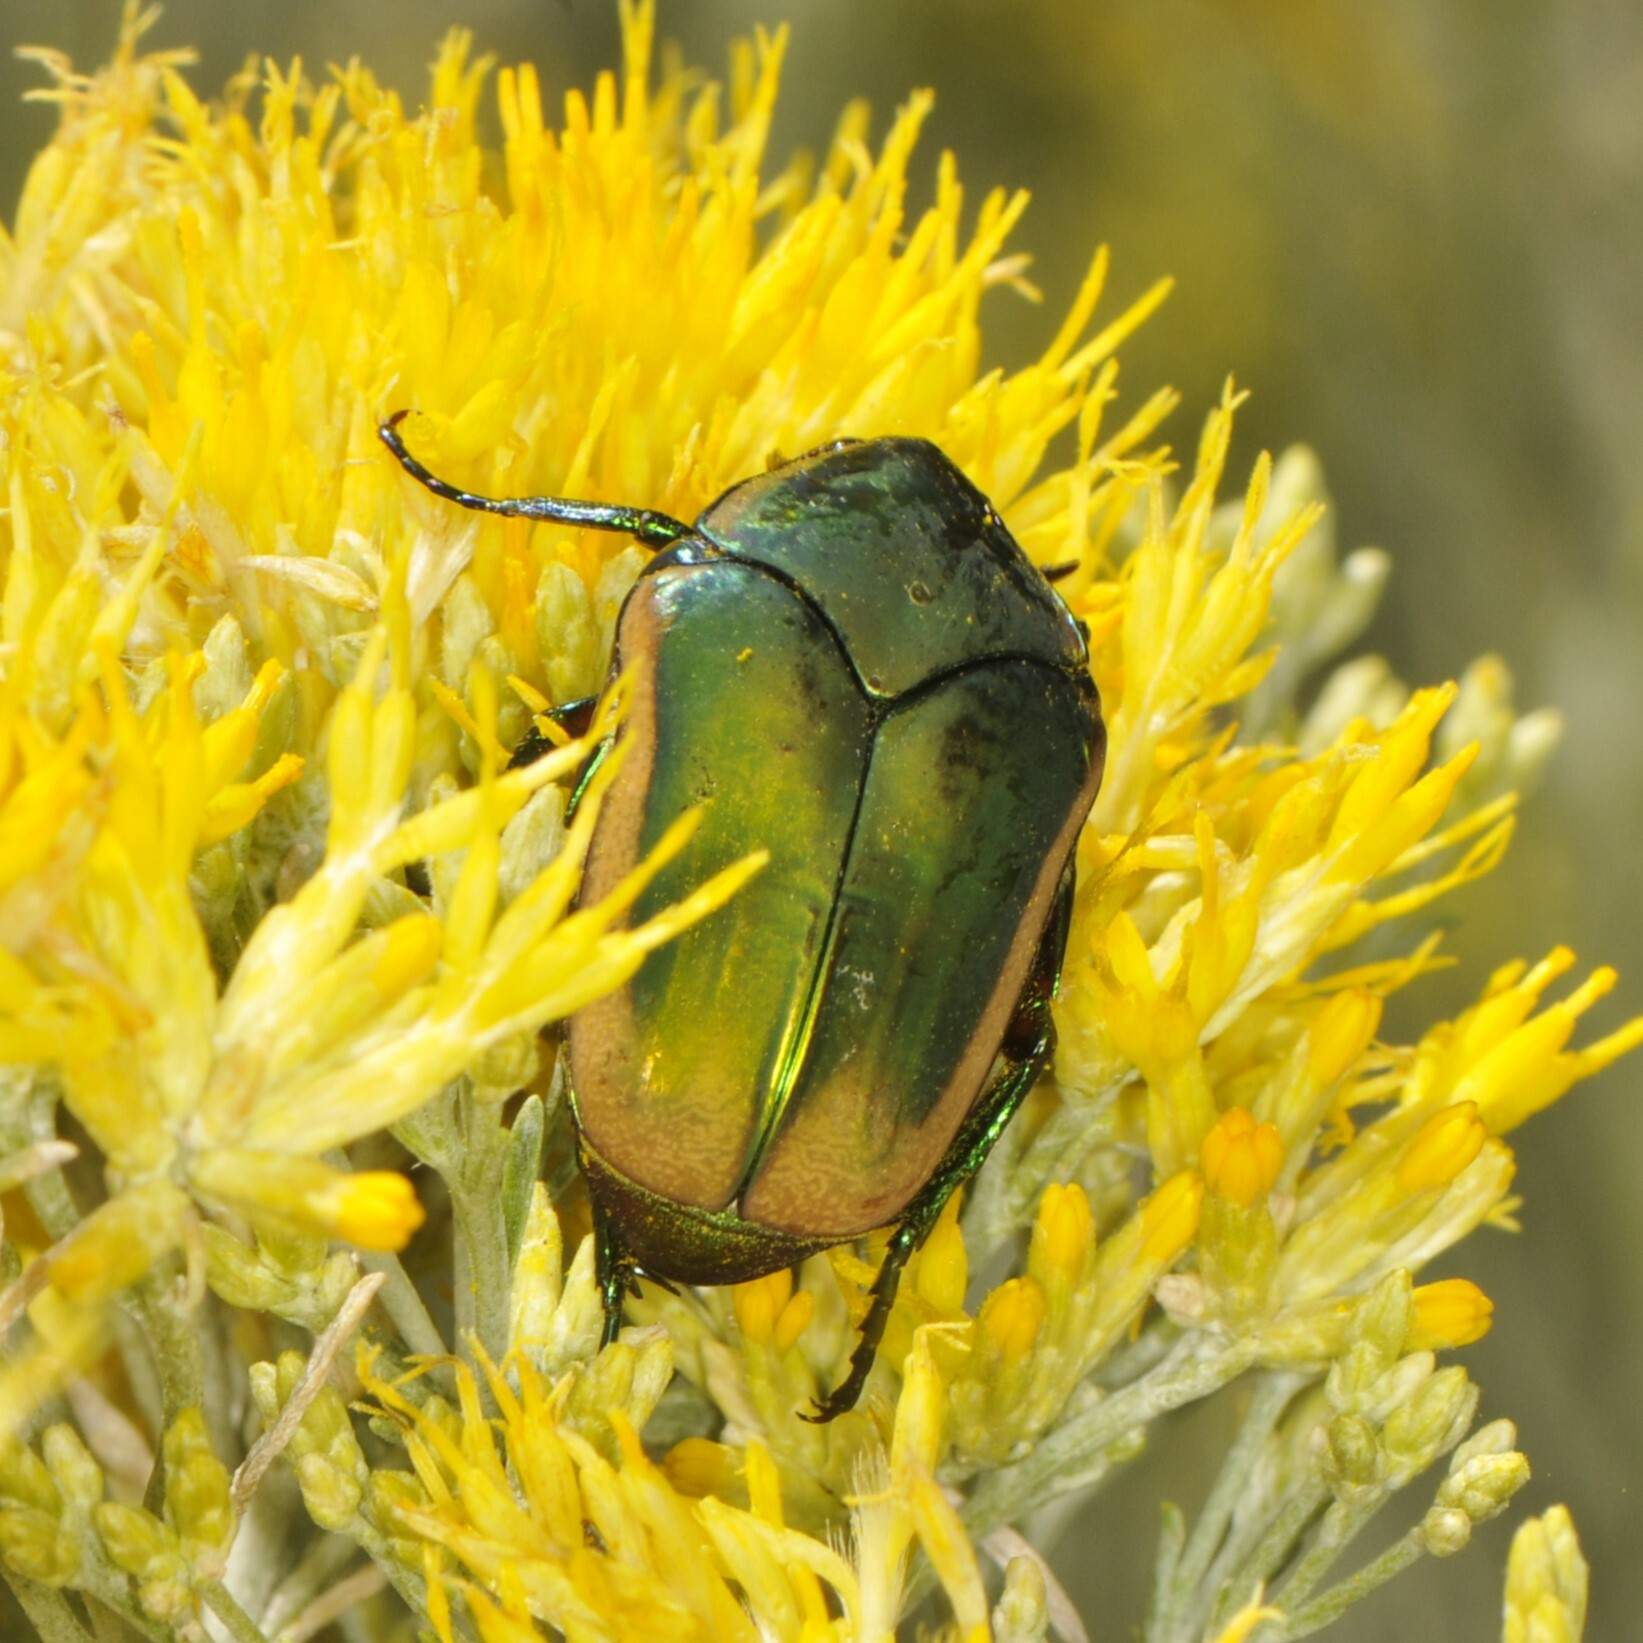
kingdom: Animalia
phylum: Arthropoda
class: Insecta
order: Coleoptera
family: Scarabaeidae
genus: Cotinis
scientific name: Cotinis mutabilis
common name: Figeater beetle
